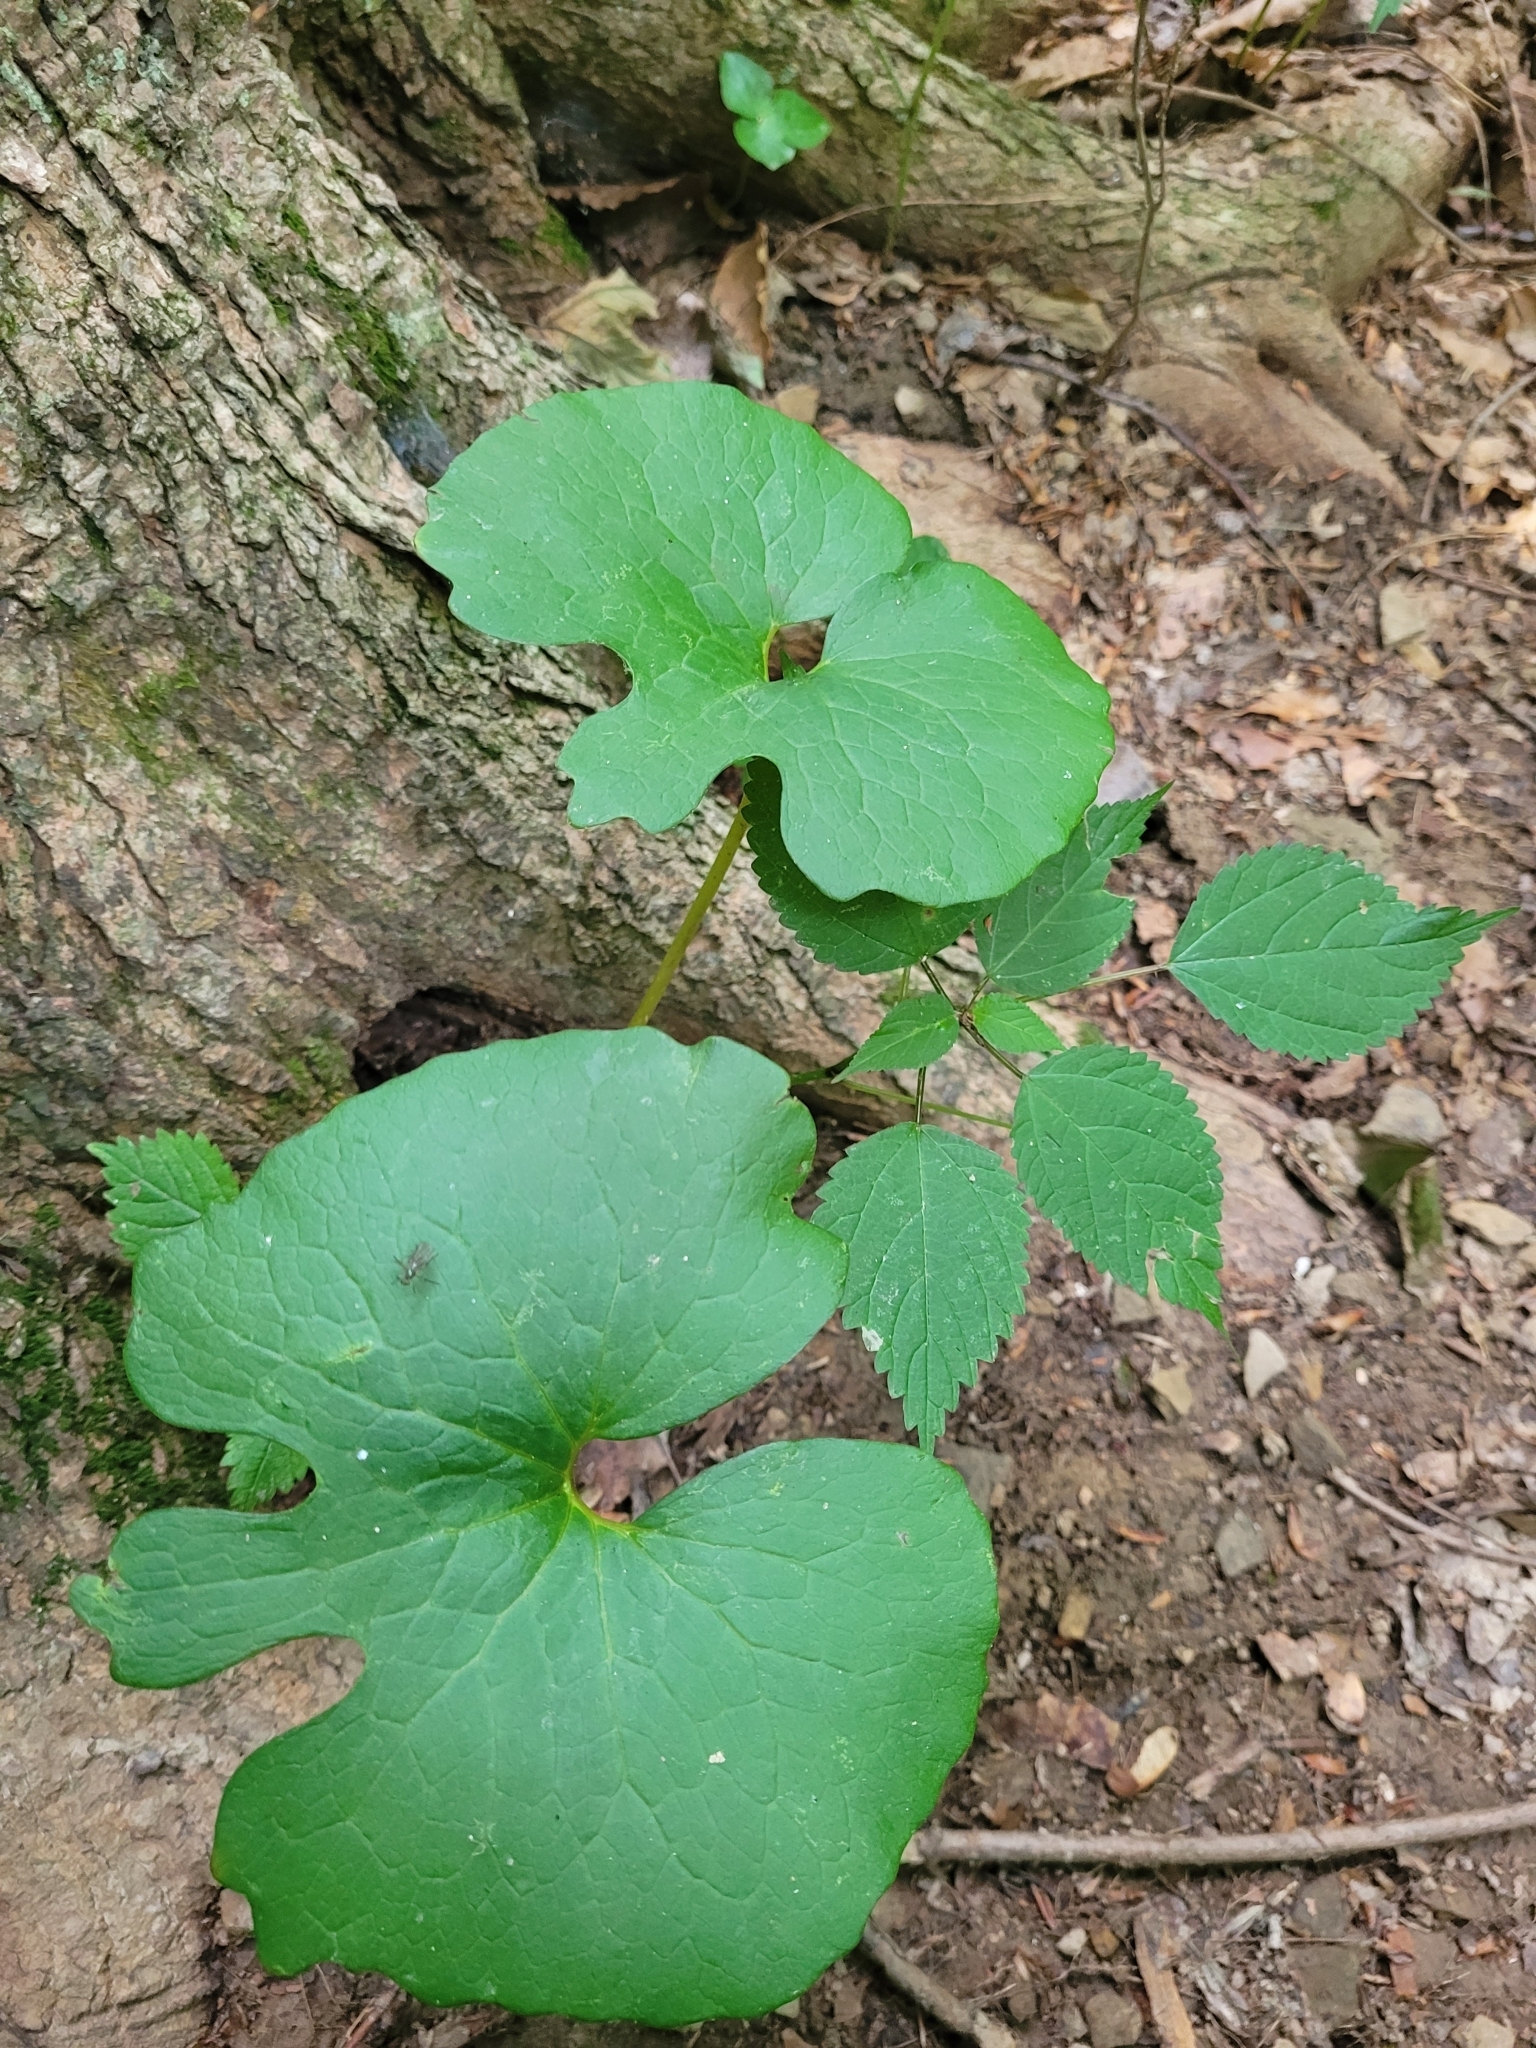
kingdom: Plantae
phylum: Tracheophyta
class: Magnoliopsida
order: Ranunculales
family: Papaveraceae
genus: Sanguinaria
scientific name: Sanguinaria canadensis
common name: Bloodroot
